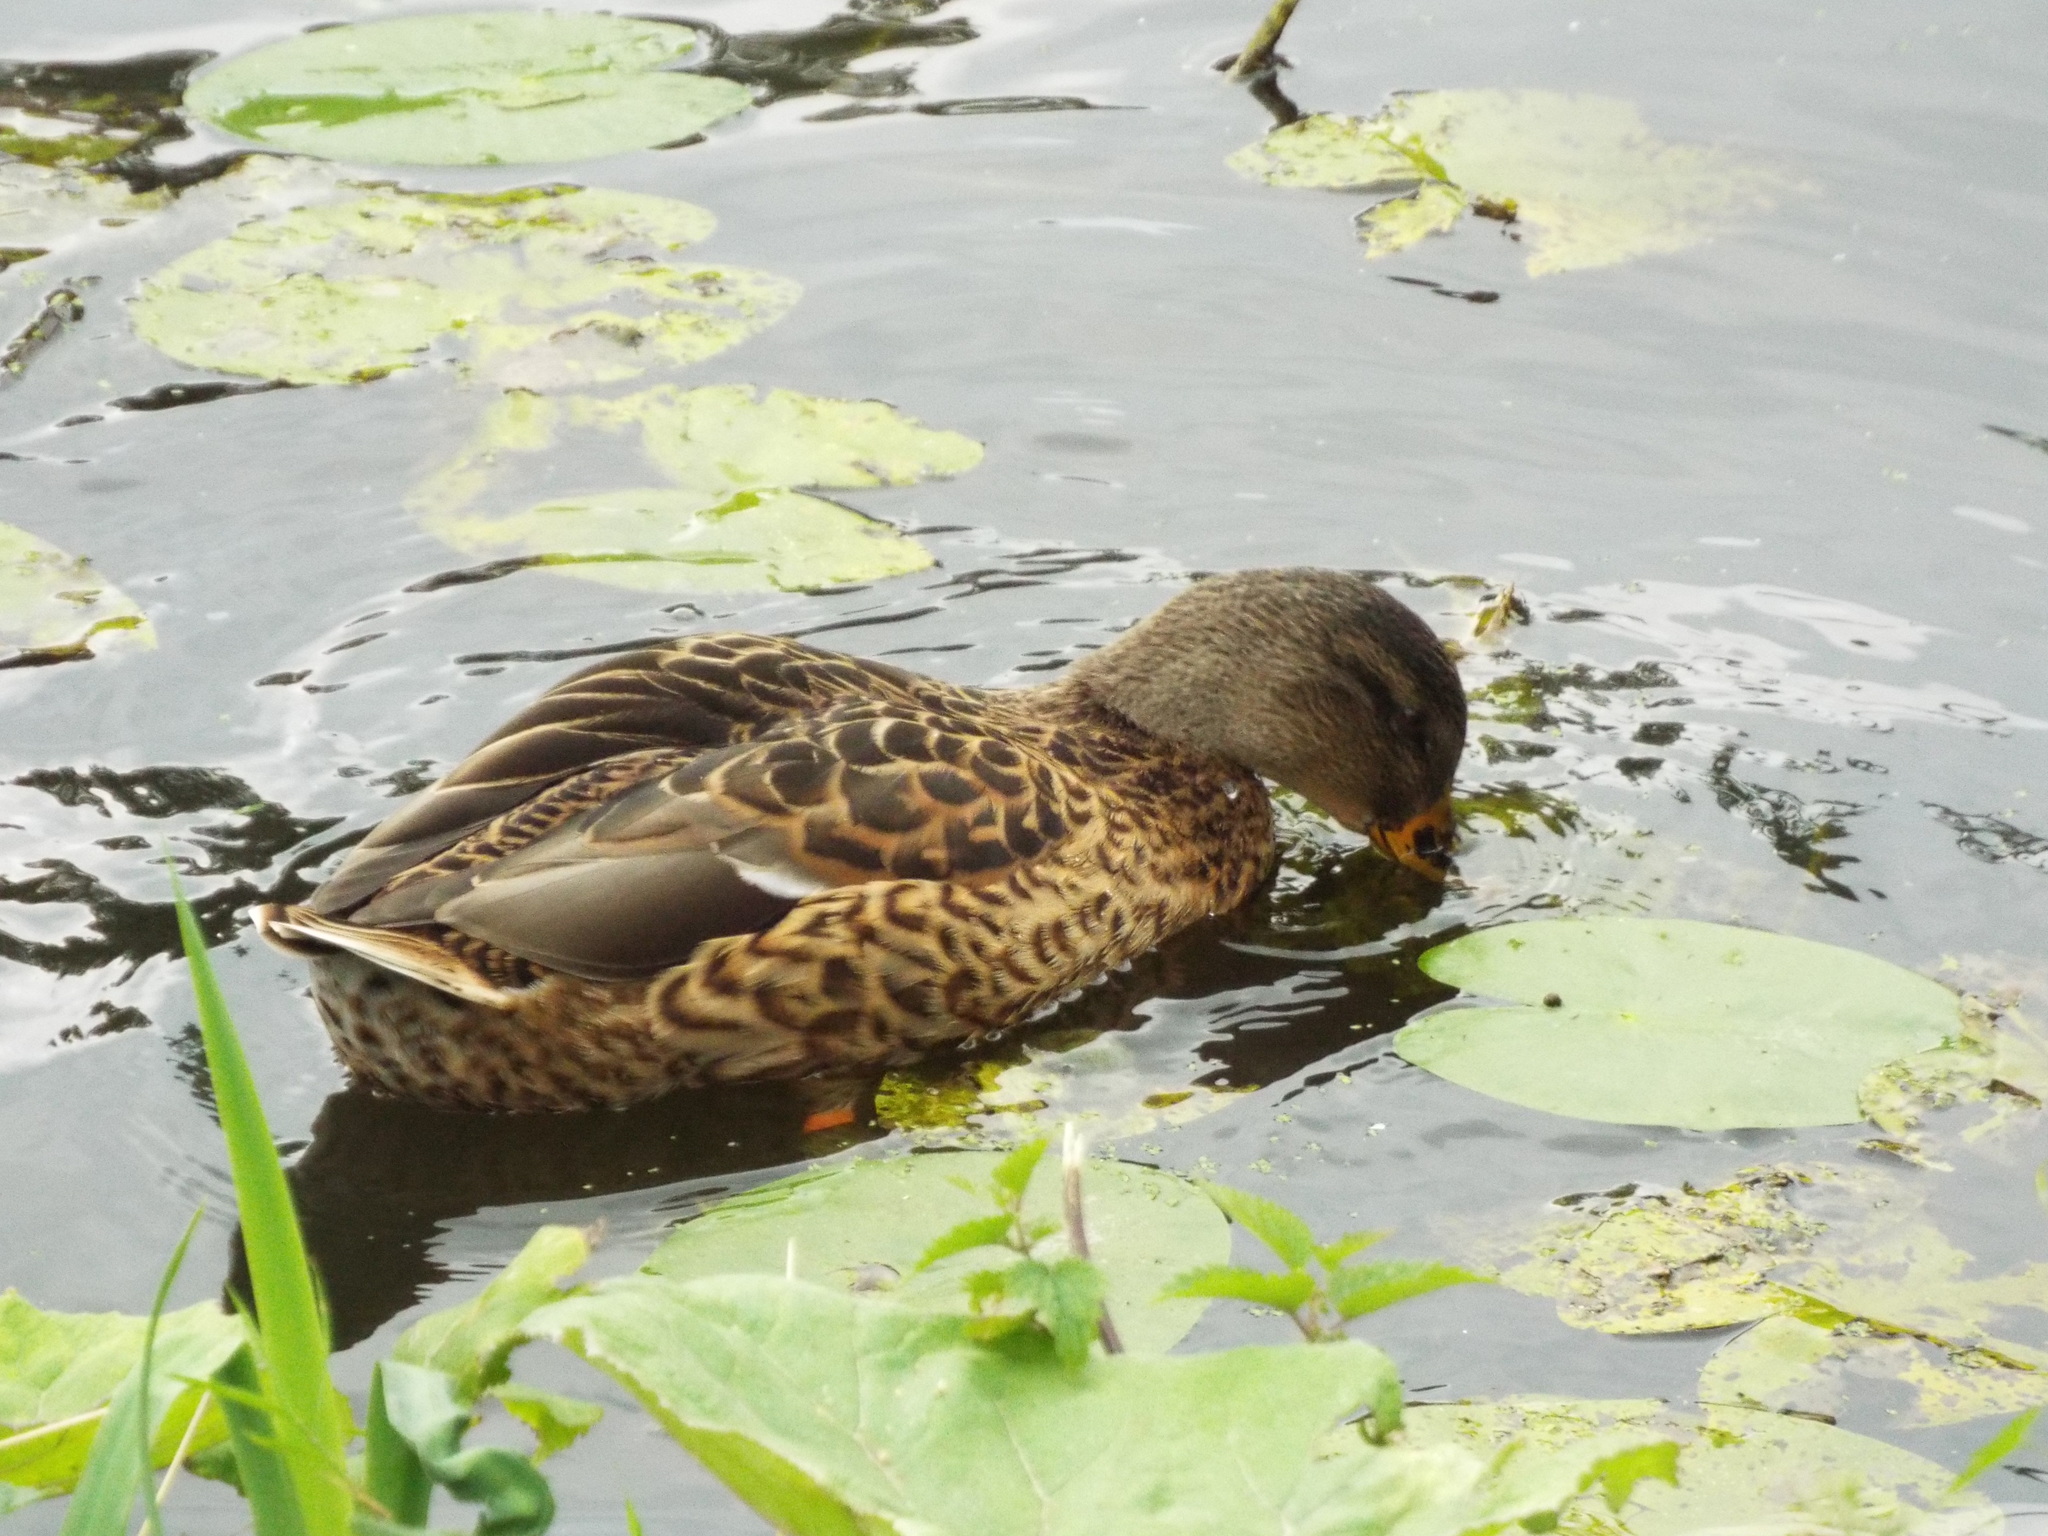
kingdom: Animalia
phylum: Chordata
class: Aves
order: Anseriformes
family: Anatidae
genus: Anas
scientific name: Anas platyrhynchos
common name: Mallard
